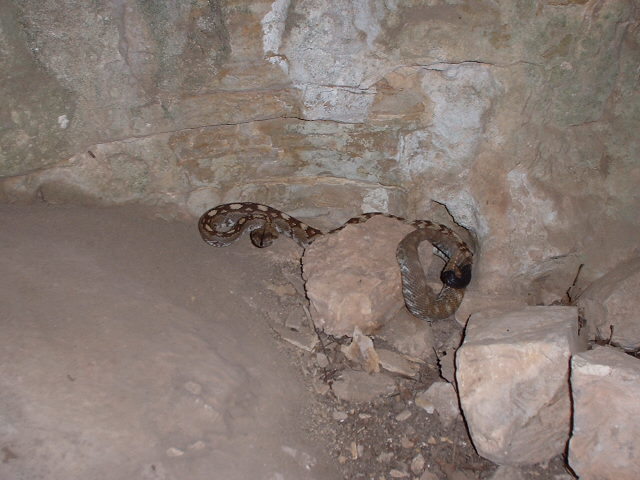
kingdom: Animalia
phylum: Chordata
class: Squamata
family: Viperidae
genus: Crotalus
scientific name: Crotalus ornatus
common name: Black-tailed rattlesnake
